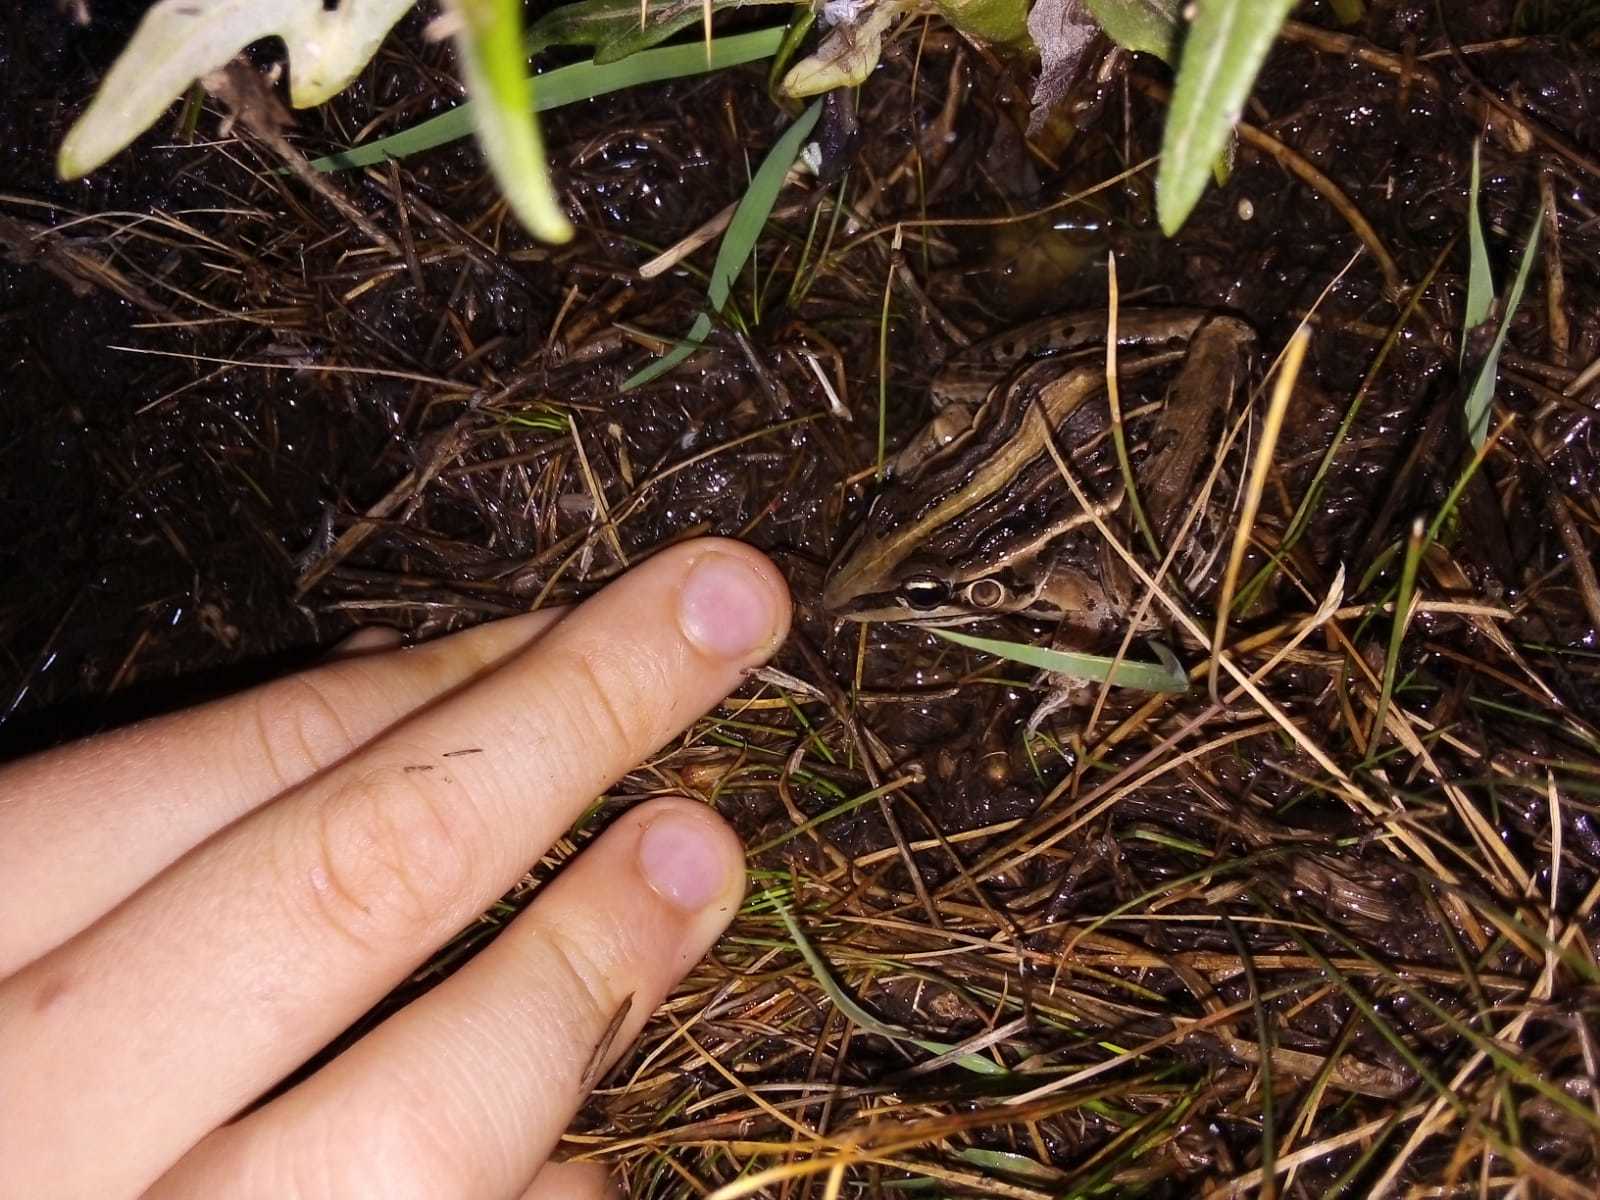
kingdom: Animalia
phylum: Chordata
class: Amphibia
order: Anura
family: Leptodactylidae
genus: Leptodactylus
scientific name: Leptodactylus gracilis
